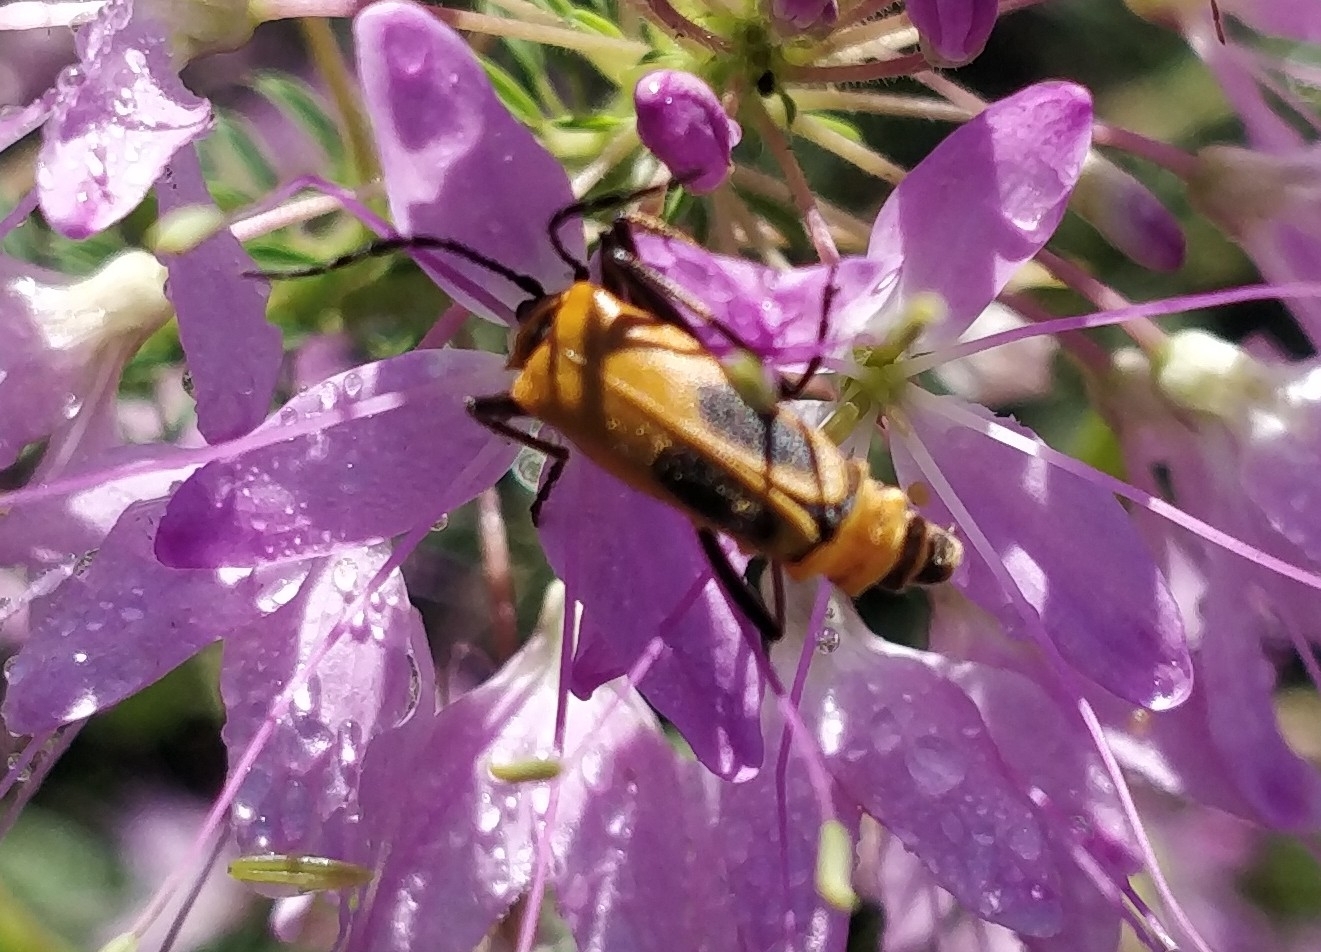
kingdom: Animalia
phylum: Arthropoda
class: Insecta
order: Coleoptera
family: Cantharidae
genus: Chauliognathus
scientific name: Chauliognathus pensylvanicus
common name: Goldenrod soldier beetle
